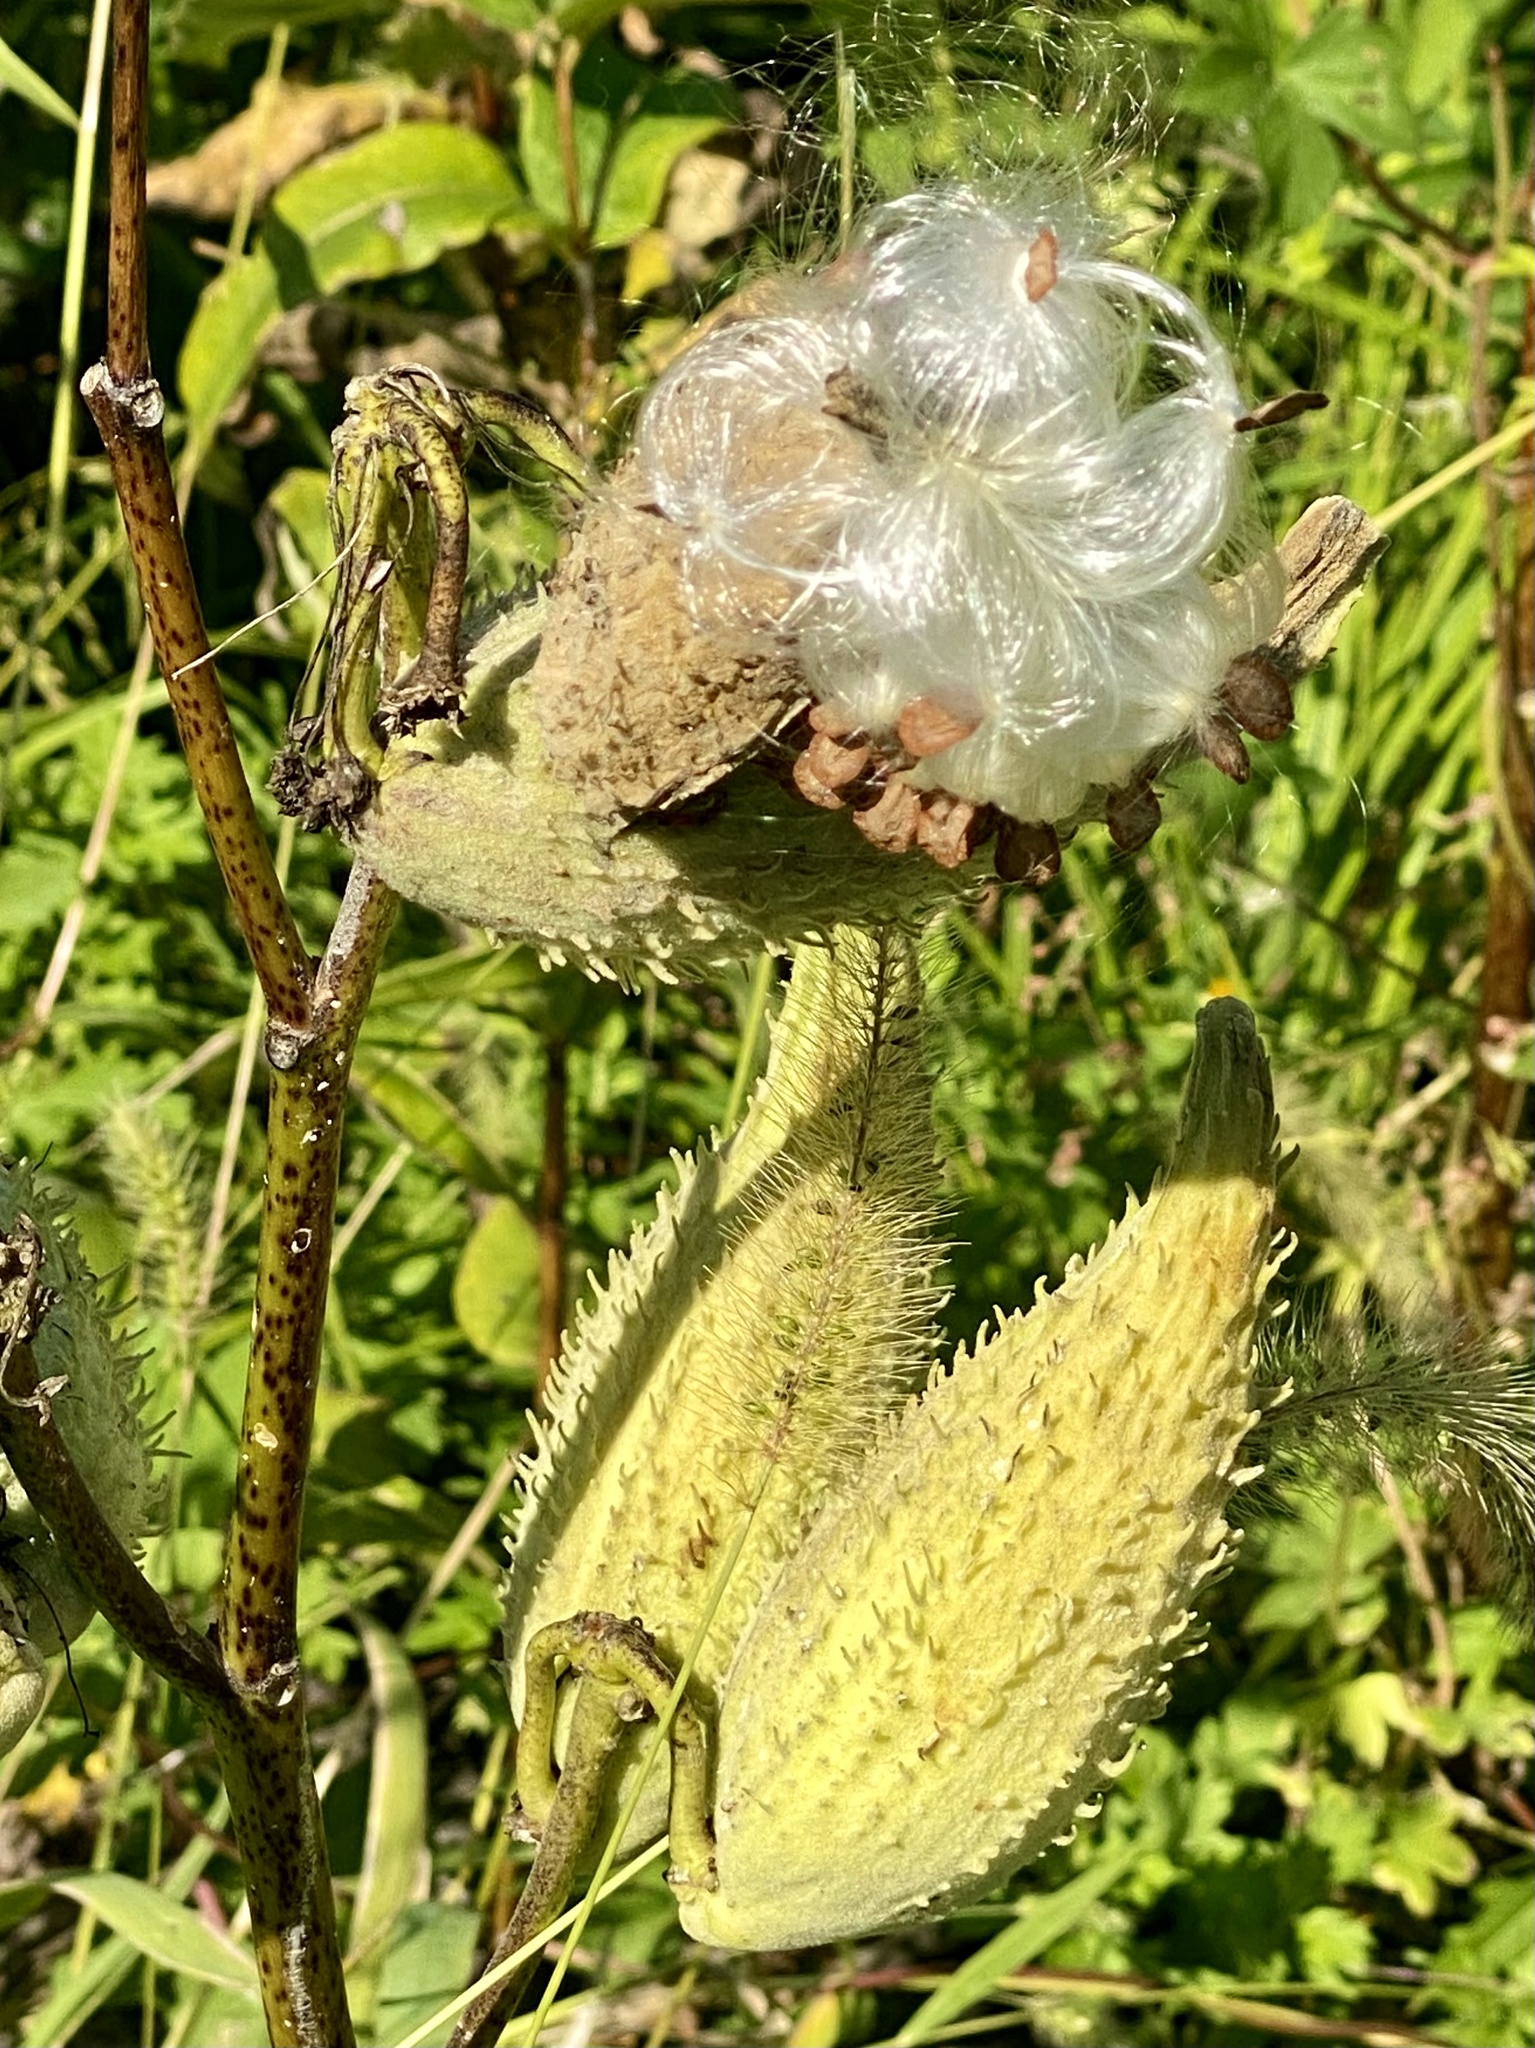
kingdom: Plantae
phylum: Tracheophyta
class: Magnoliopsida
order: Gentianales
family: Apocynaceae
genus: Asclepias
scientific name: Asclepias syriaca
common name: Common milkweed
